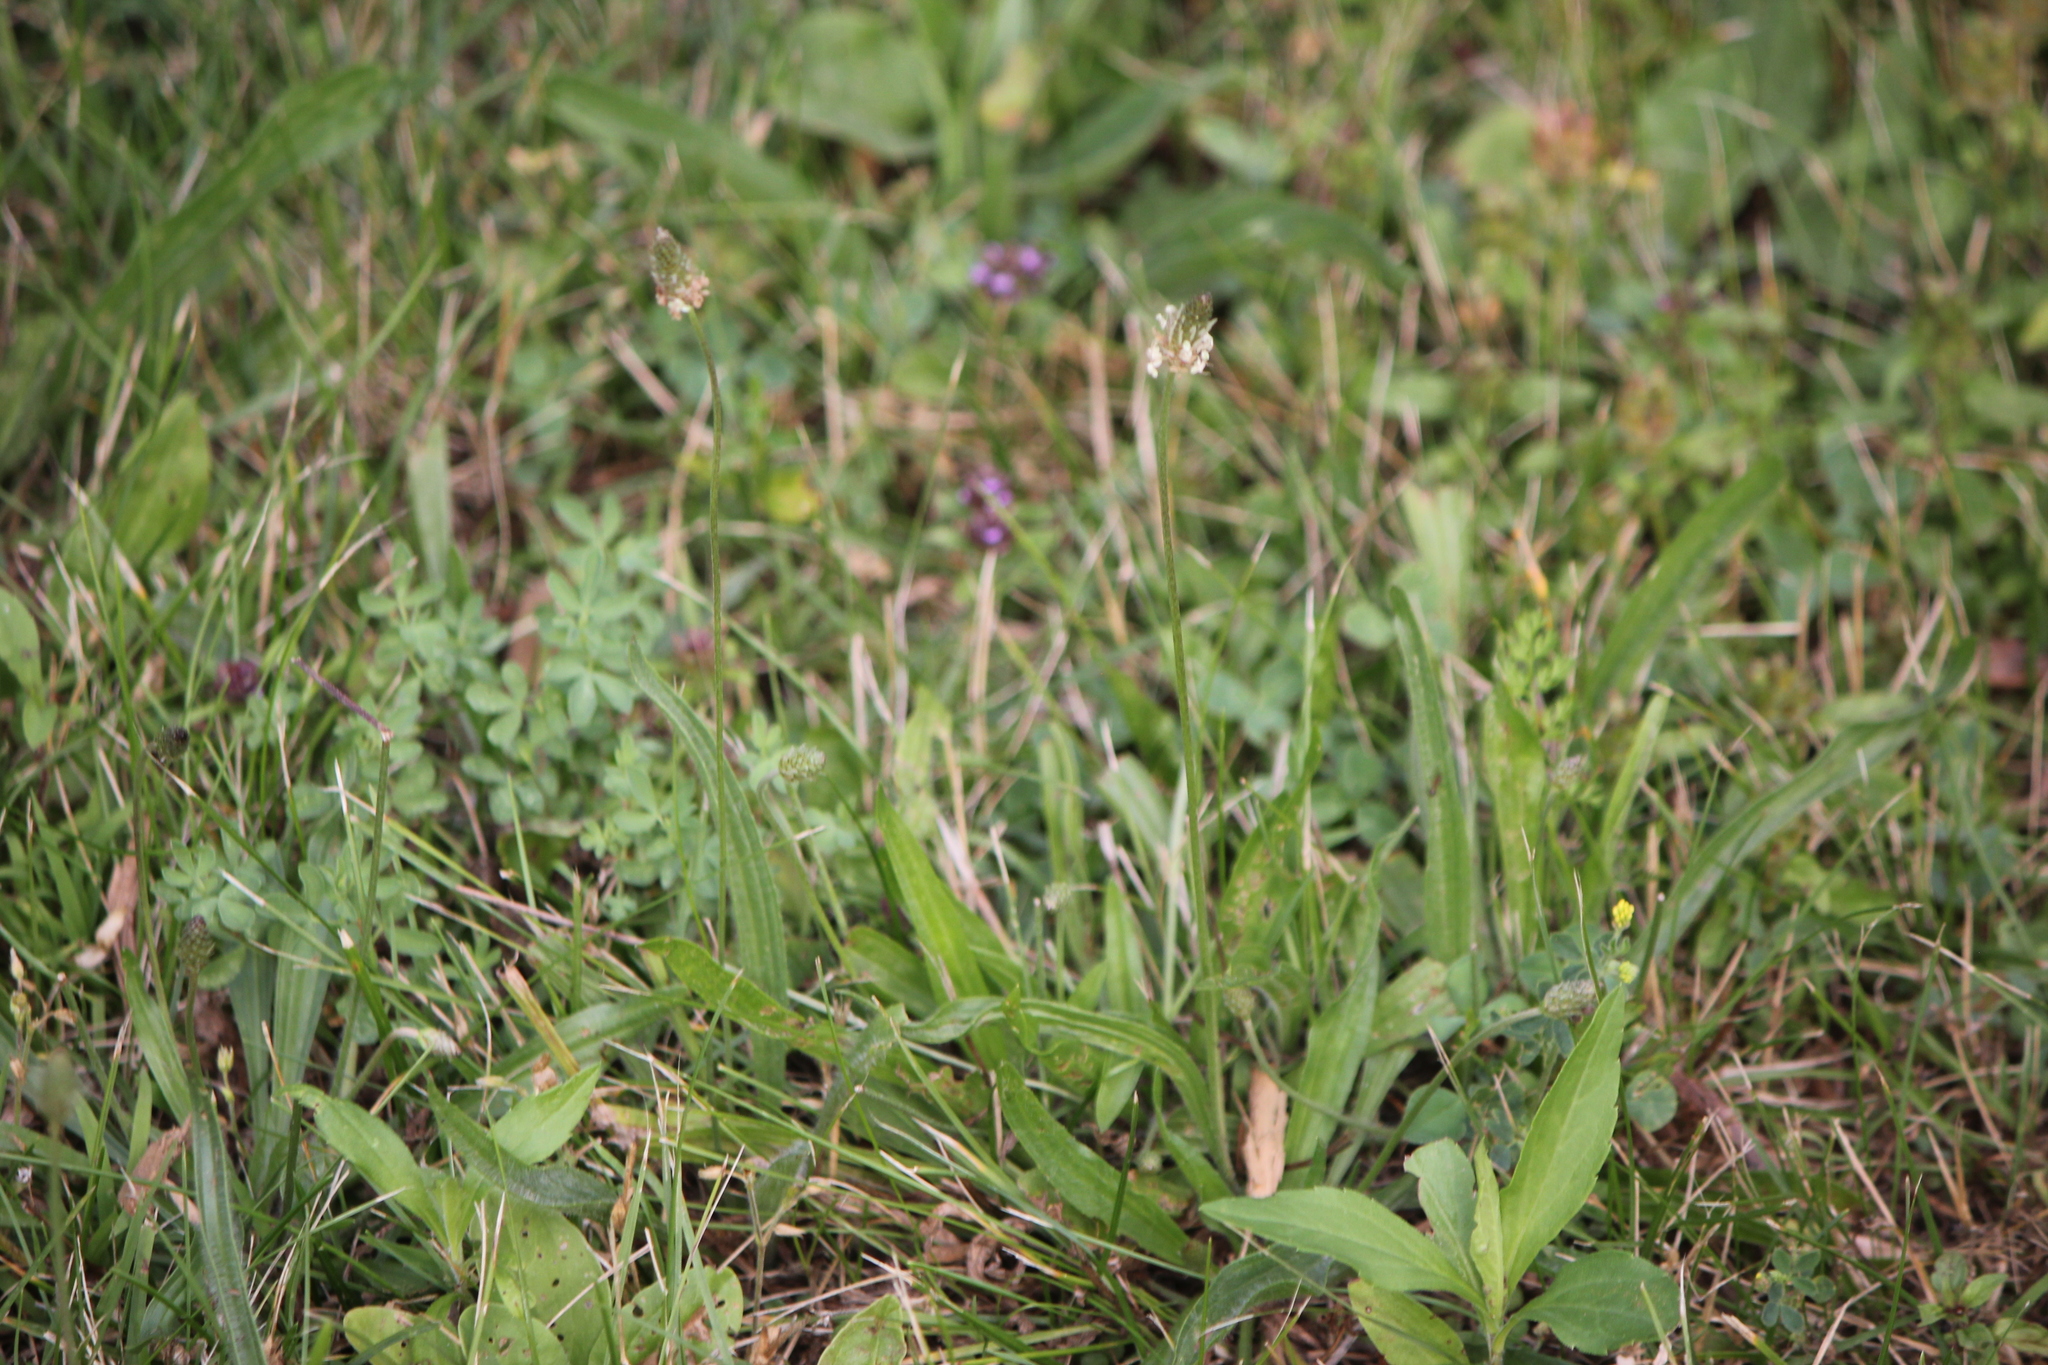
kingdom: Plantae
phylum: Tracheophyta
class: Magnoliopsida
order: Lamiales
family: Plantaginaceae
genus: Plantago
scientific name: Plantago lanceolata
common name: Ribwort plantain
